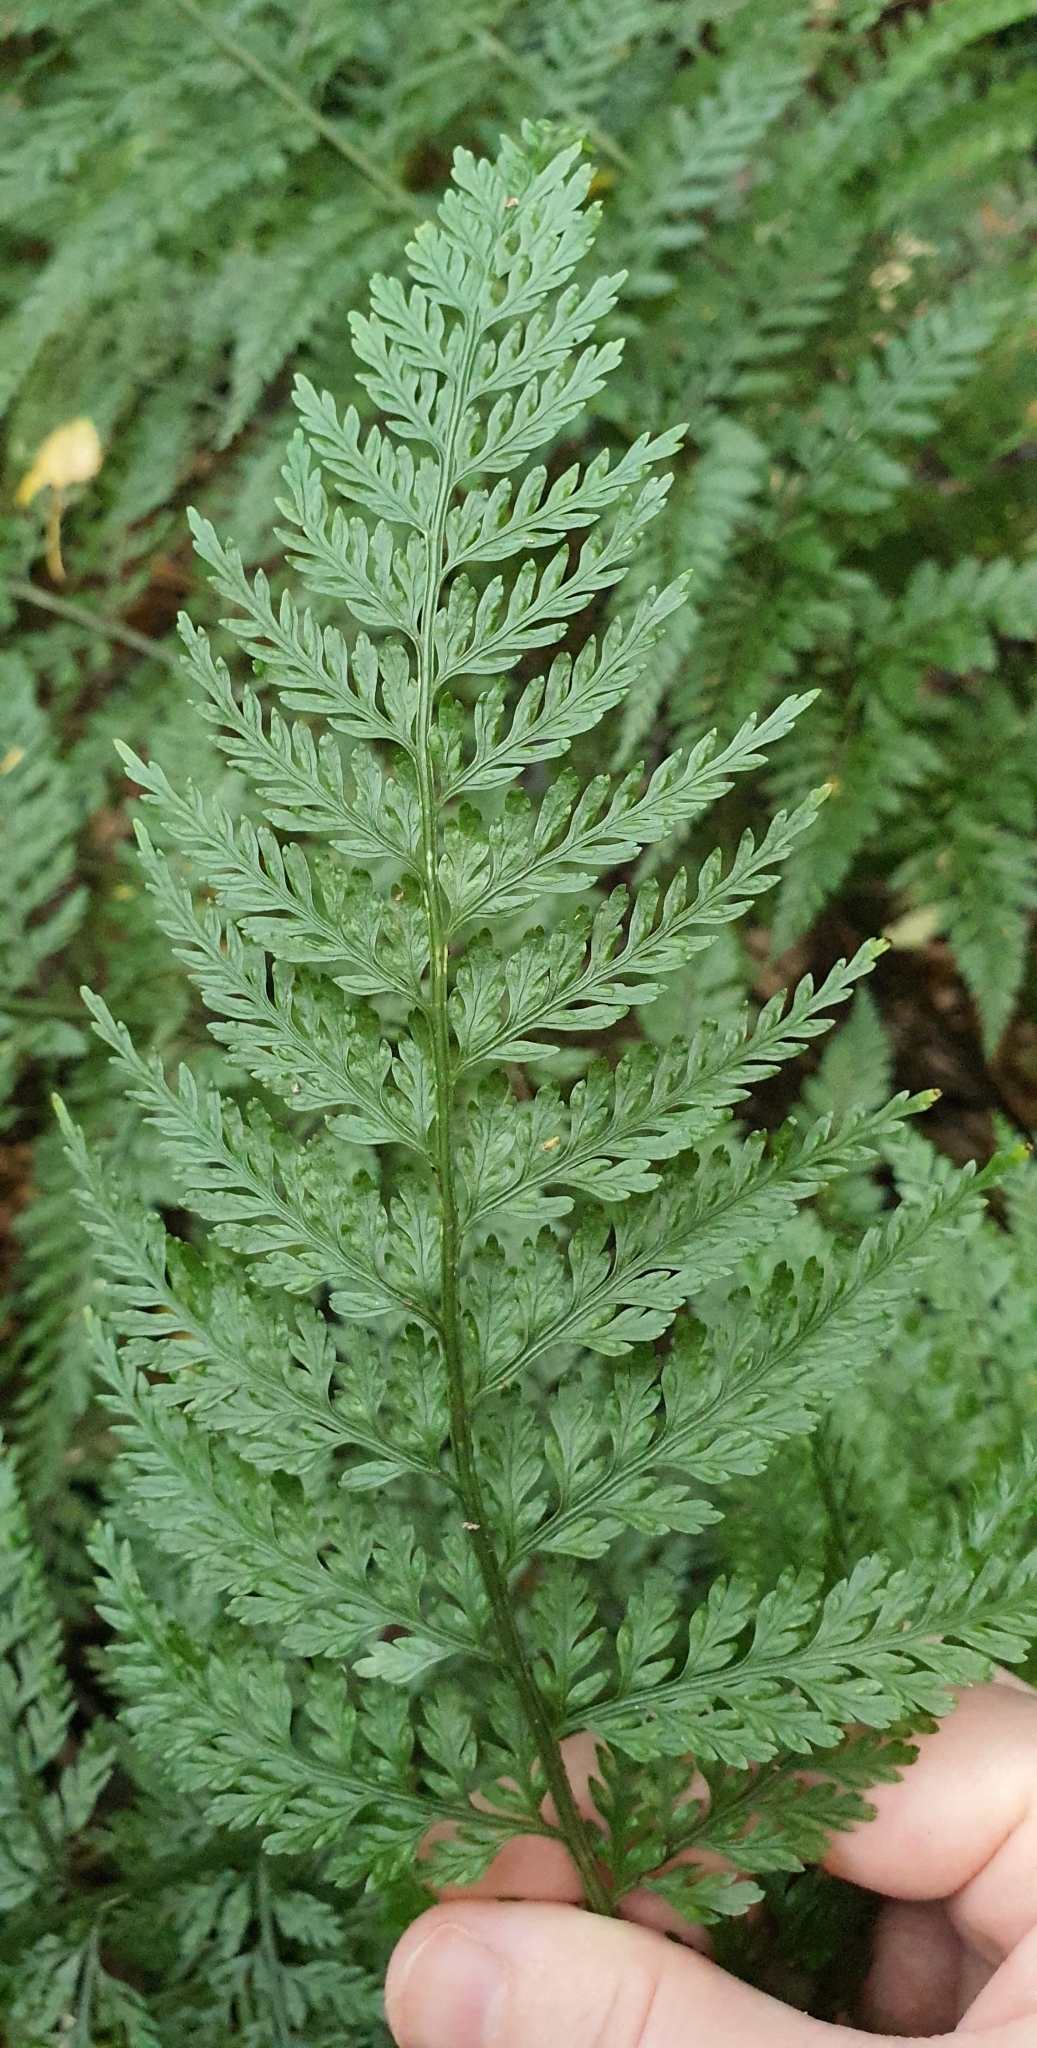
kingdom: Plantae
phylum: Tracheophyta
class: Polypodiopsida
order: Polypodiales
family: Aspleniaceae
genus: Asplenium
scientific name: Asplenium
